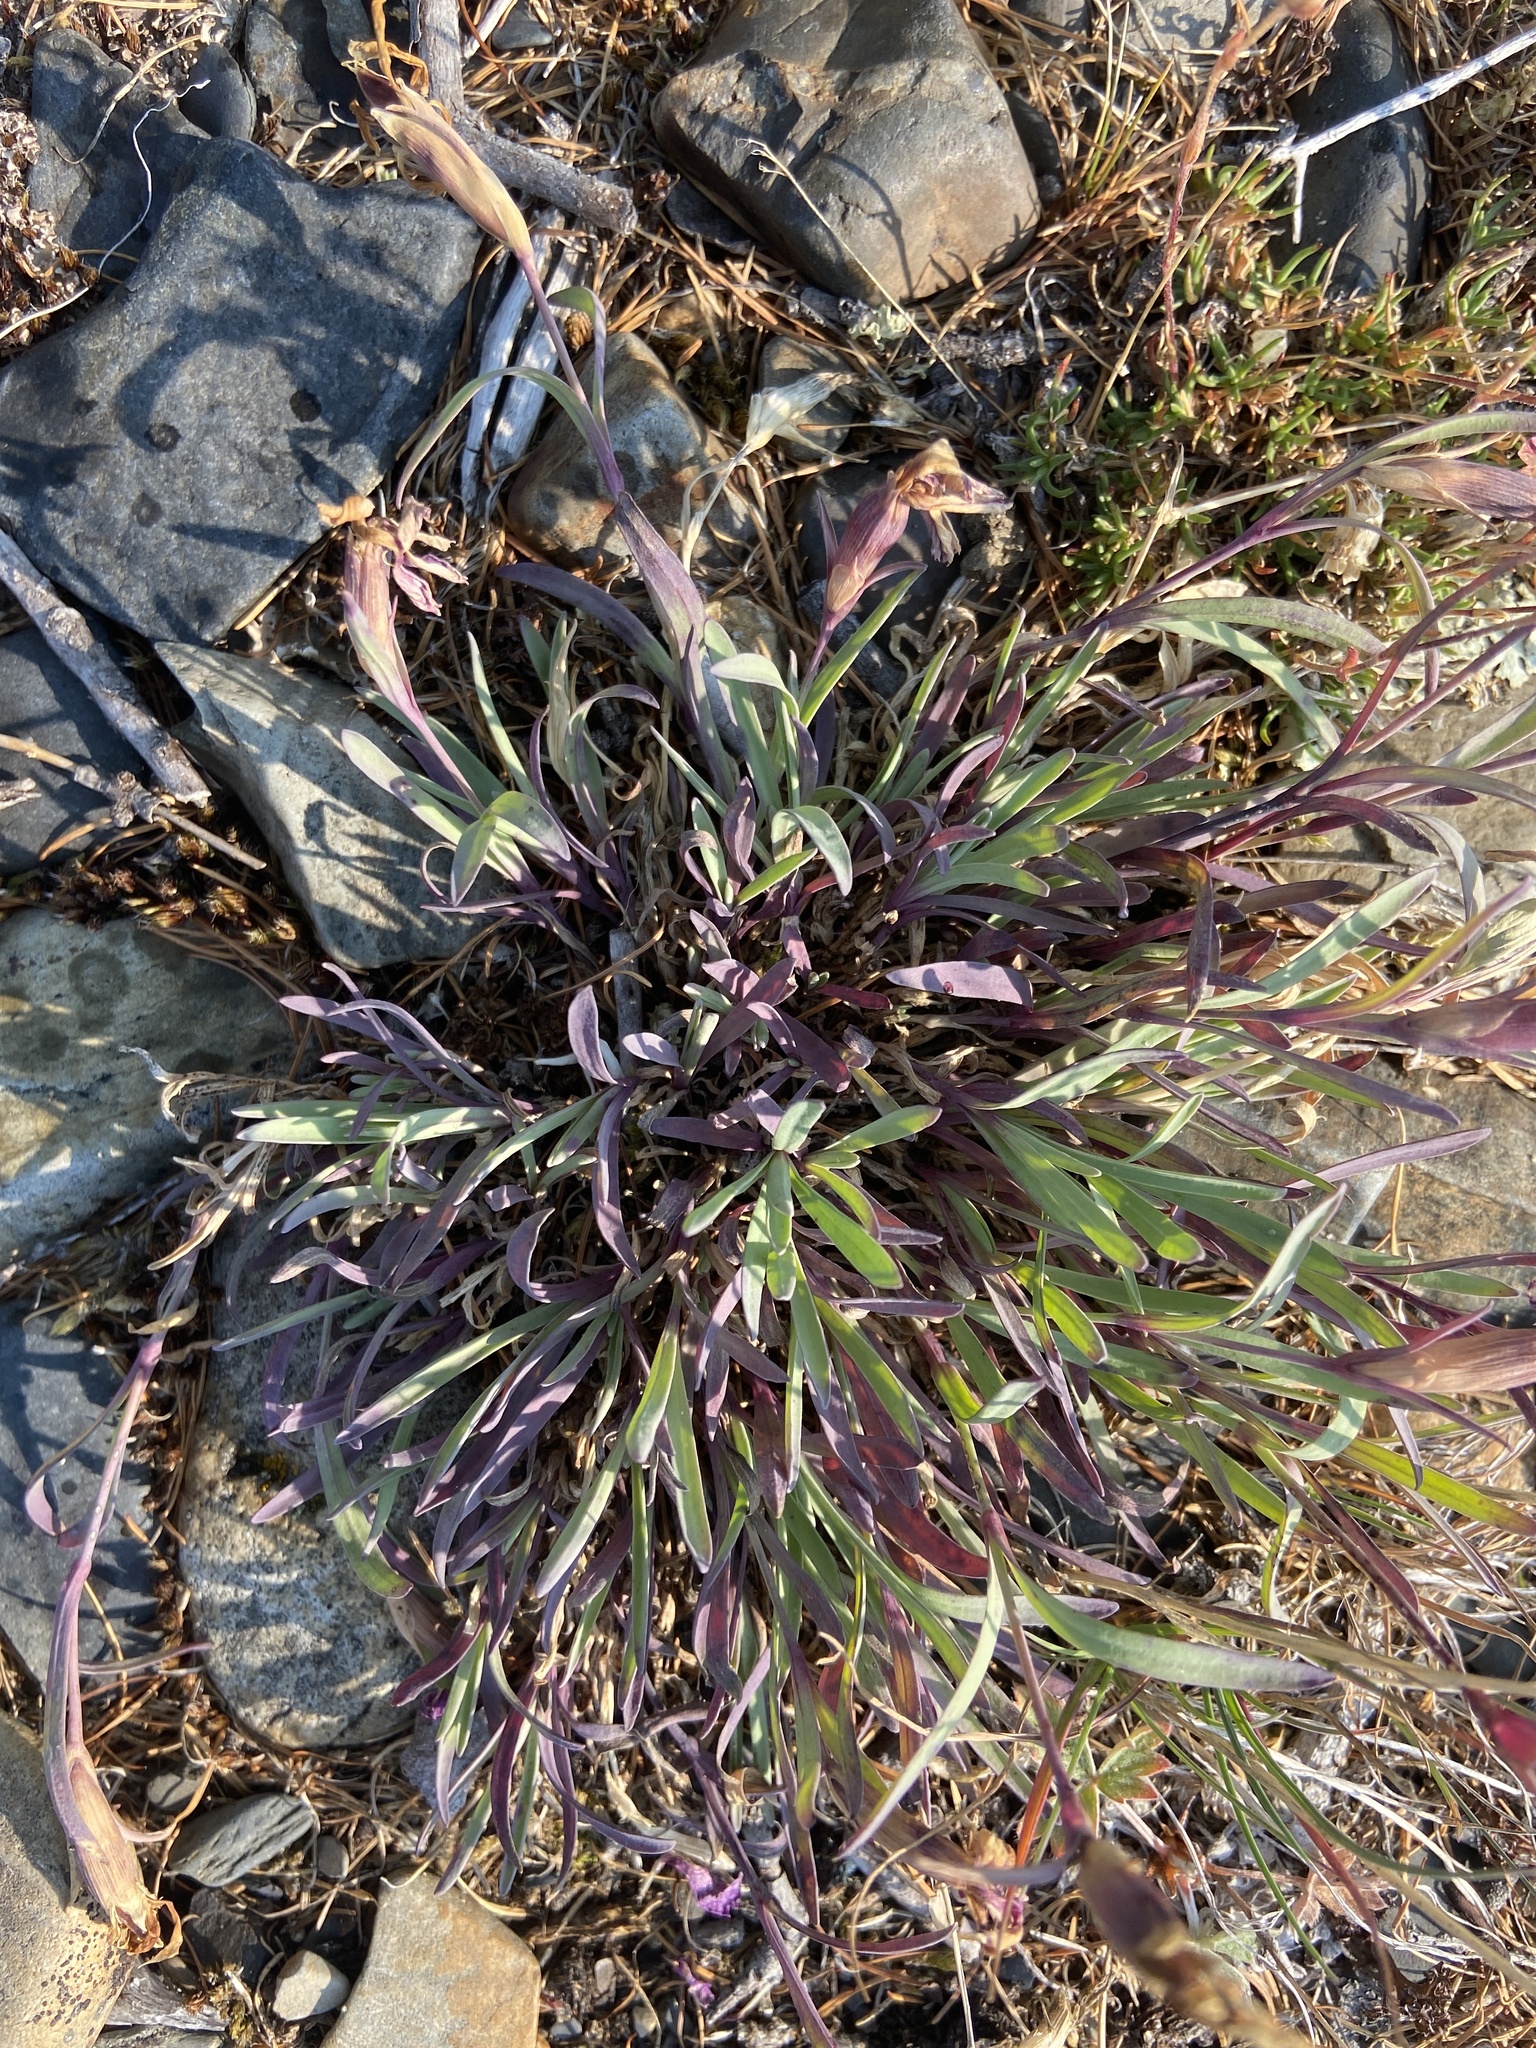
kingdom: Plantae
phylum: Tracheophyta
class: Magnoliopsida
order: Caryophyllales
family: Caryophyllaceae
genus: Dianthus
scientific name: Dianthus repens
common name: Northern pink
